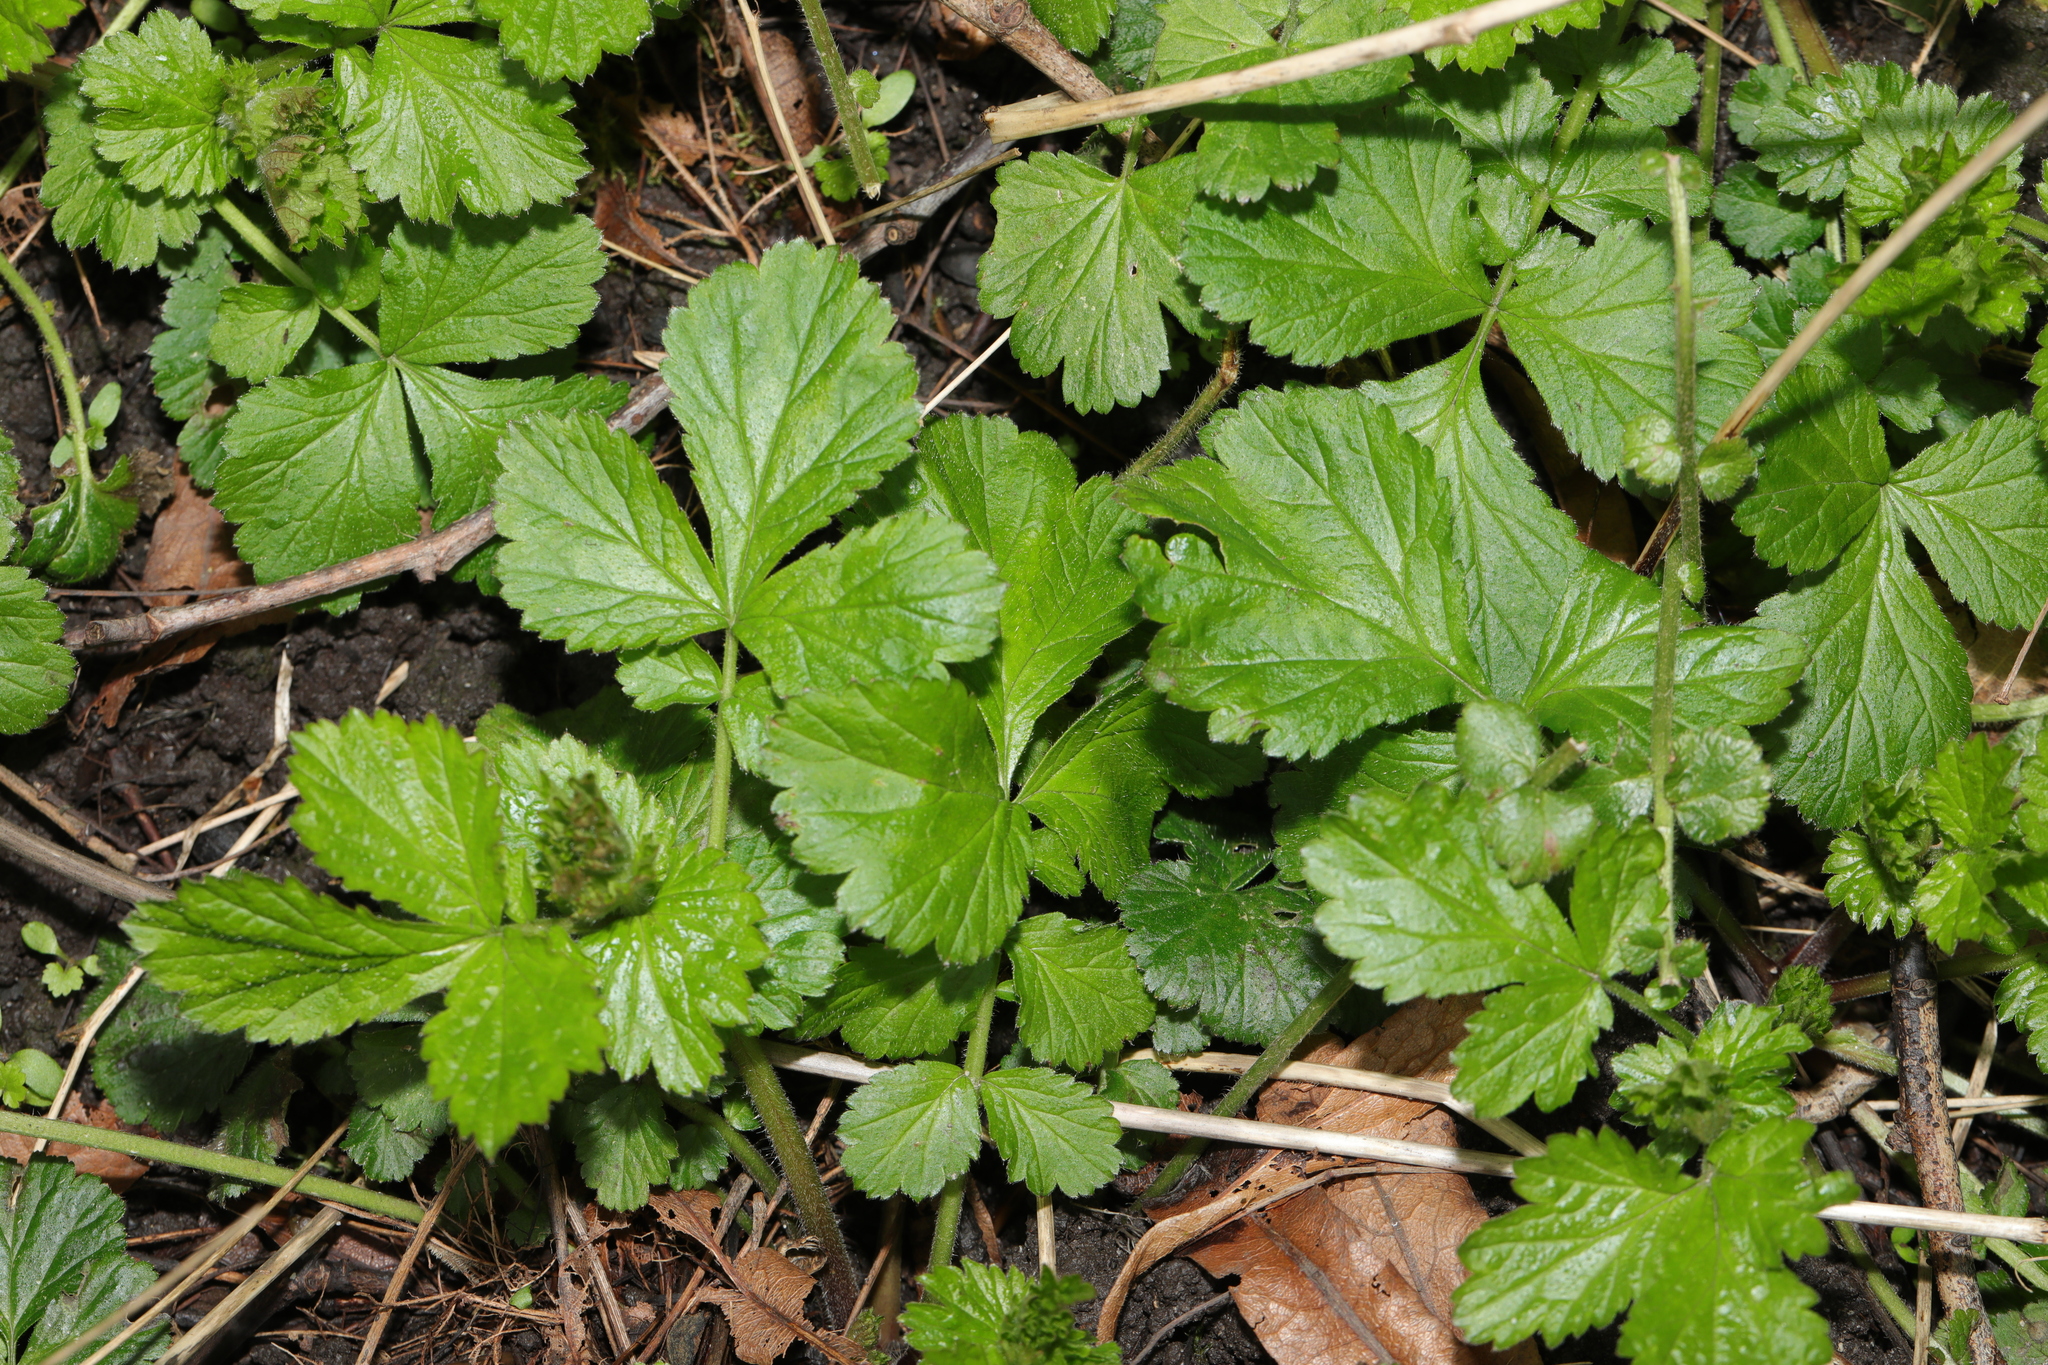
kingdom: Plantae
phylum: Tracheophyta
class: Magnoliopsida
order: Rosales
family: Rosaceae
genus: Geum
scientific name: Geum urbanum
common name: Wood avens
